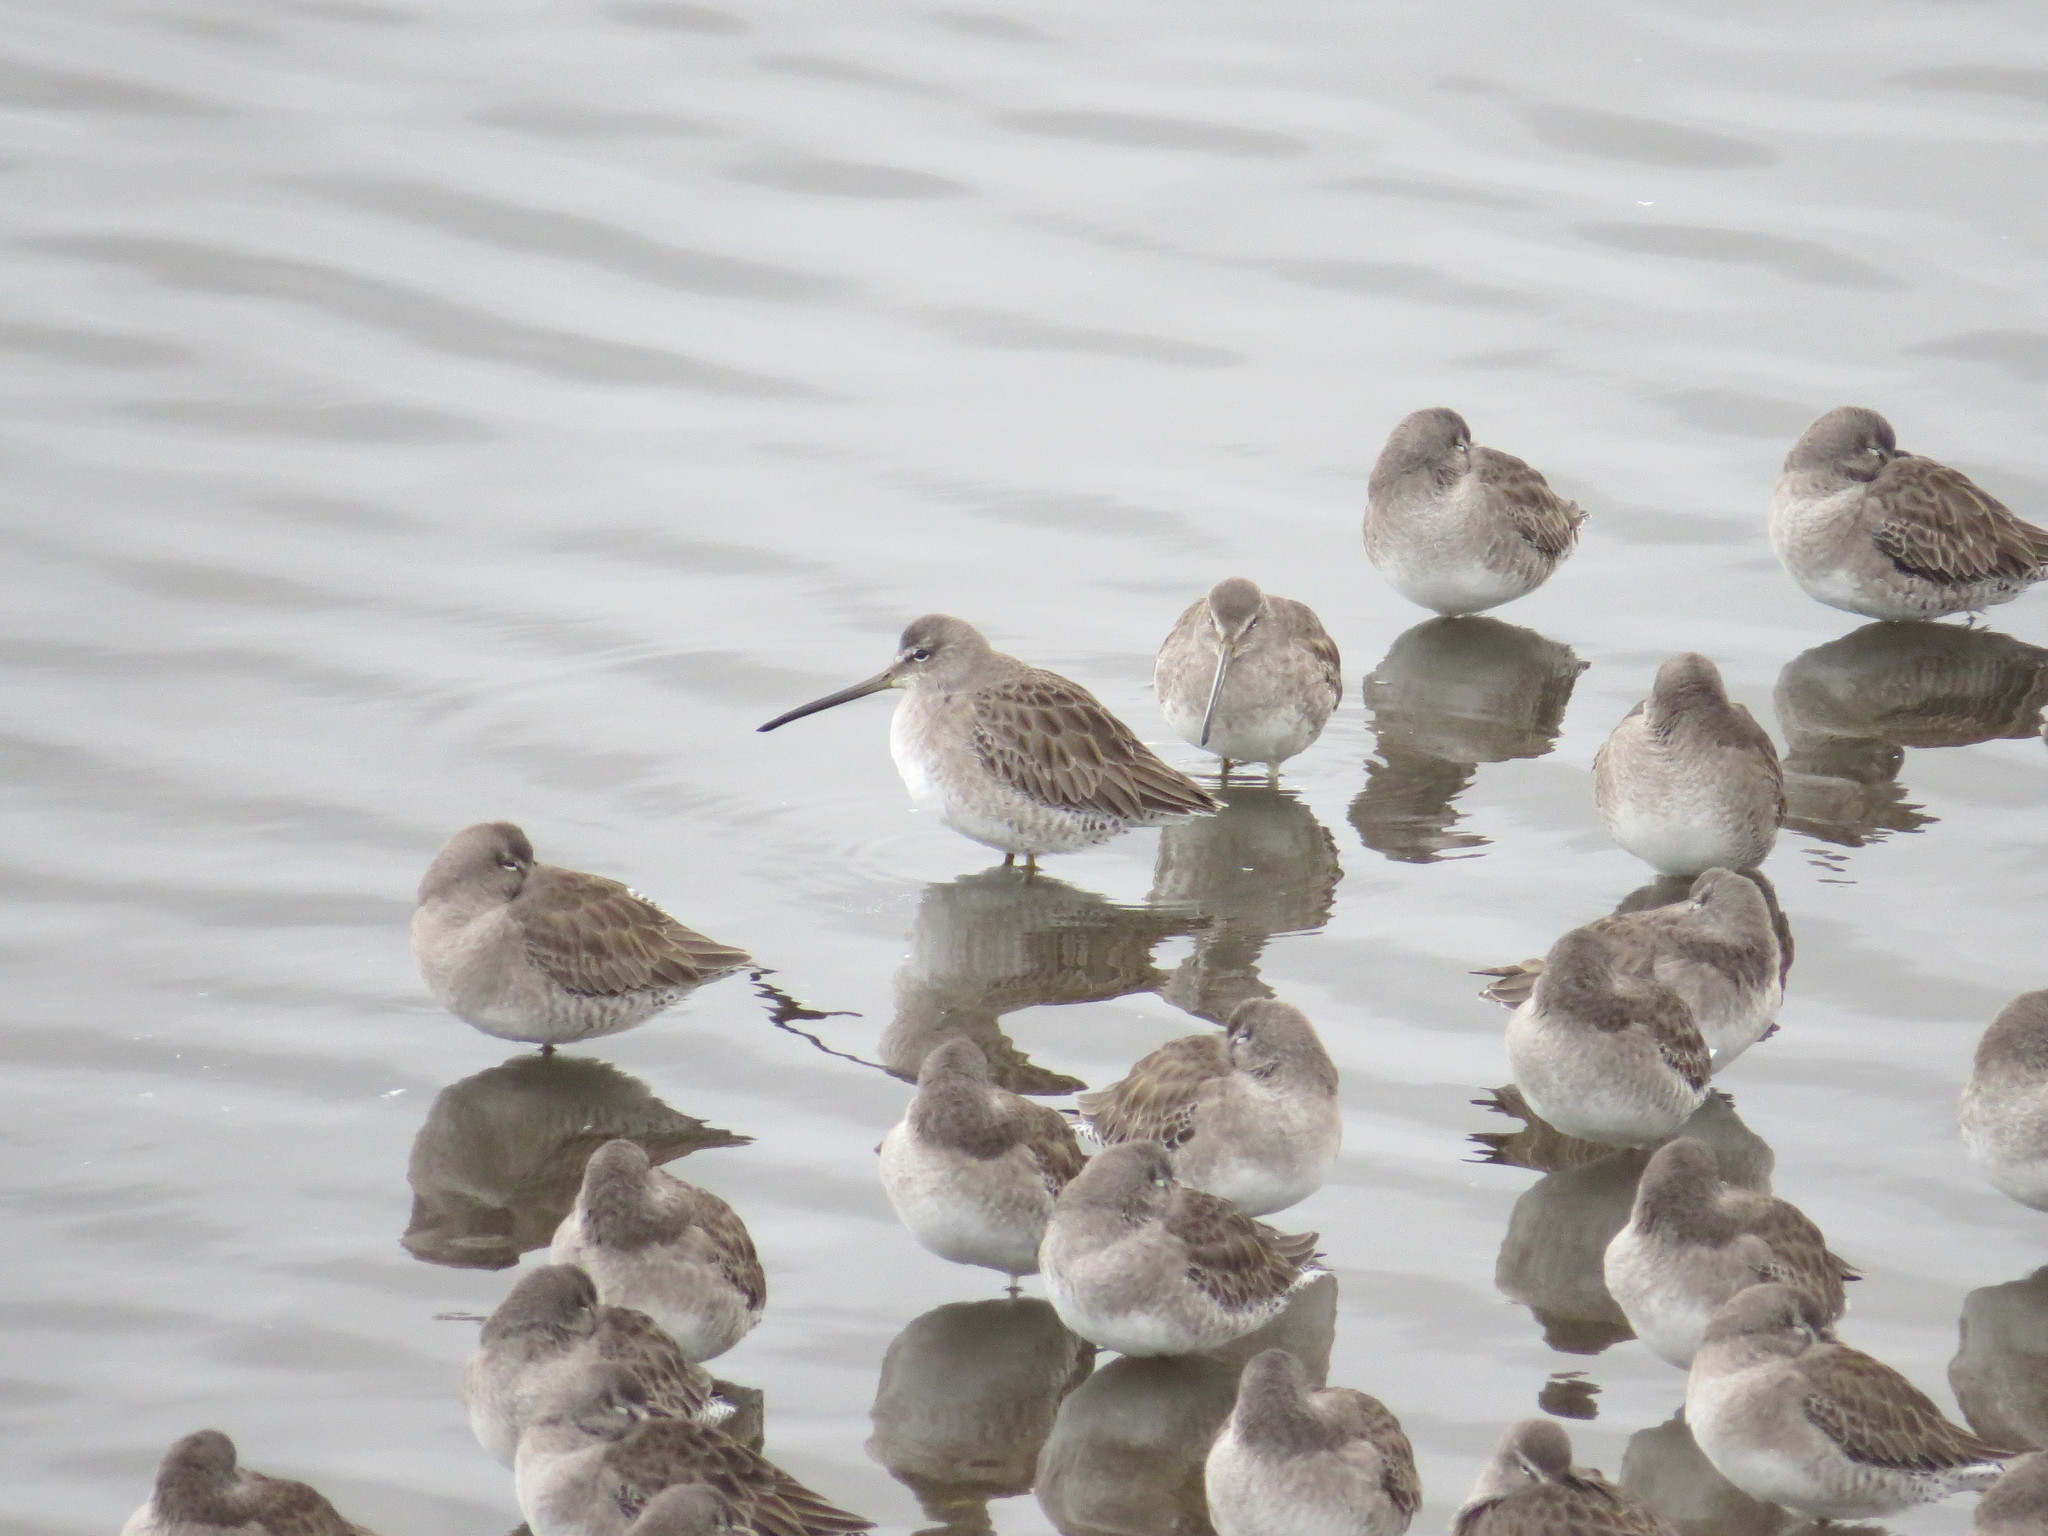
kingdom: Animalia
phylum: Chordata
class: Aves
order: Charadriiformes
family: Scolopacidae
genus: Limnodromus
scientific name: Limnodromus scolopaceus
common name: Long-billed dowitcher
